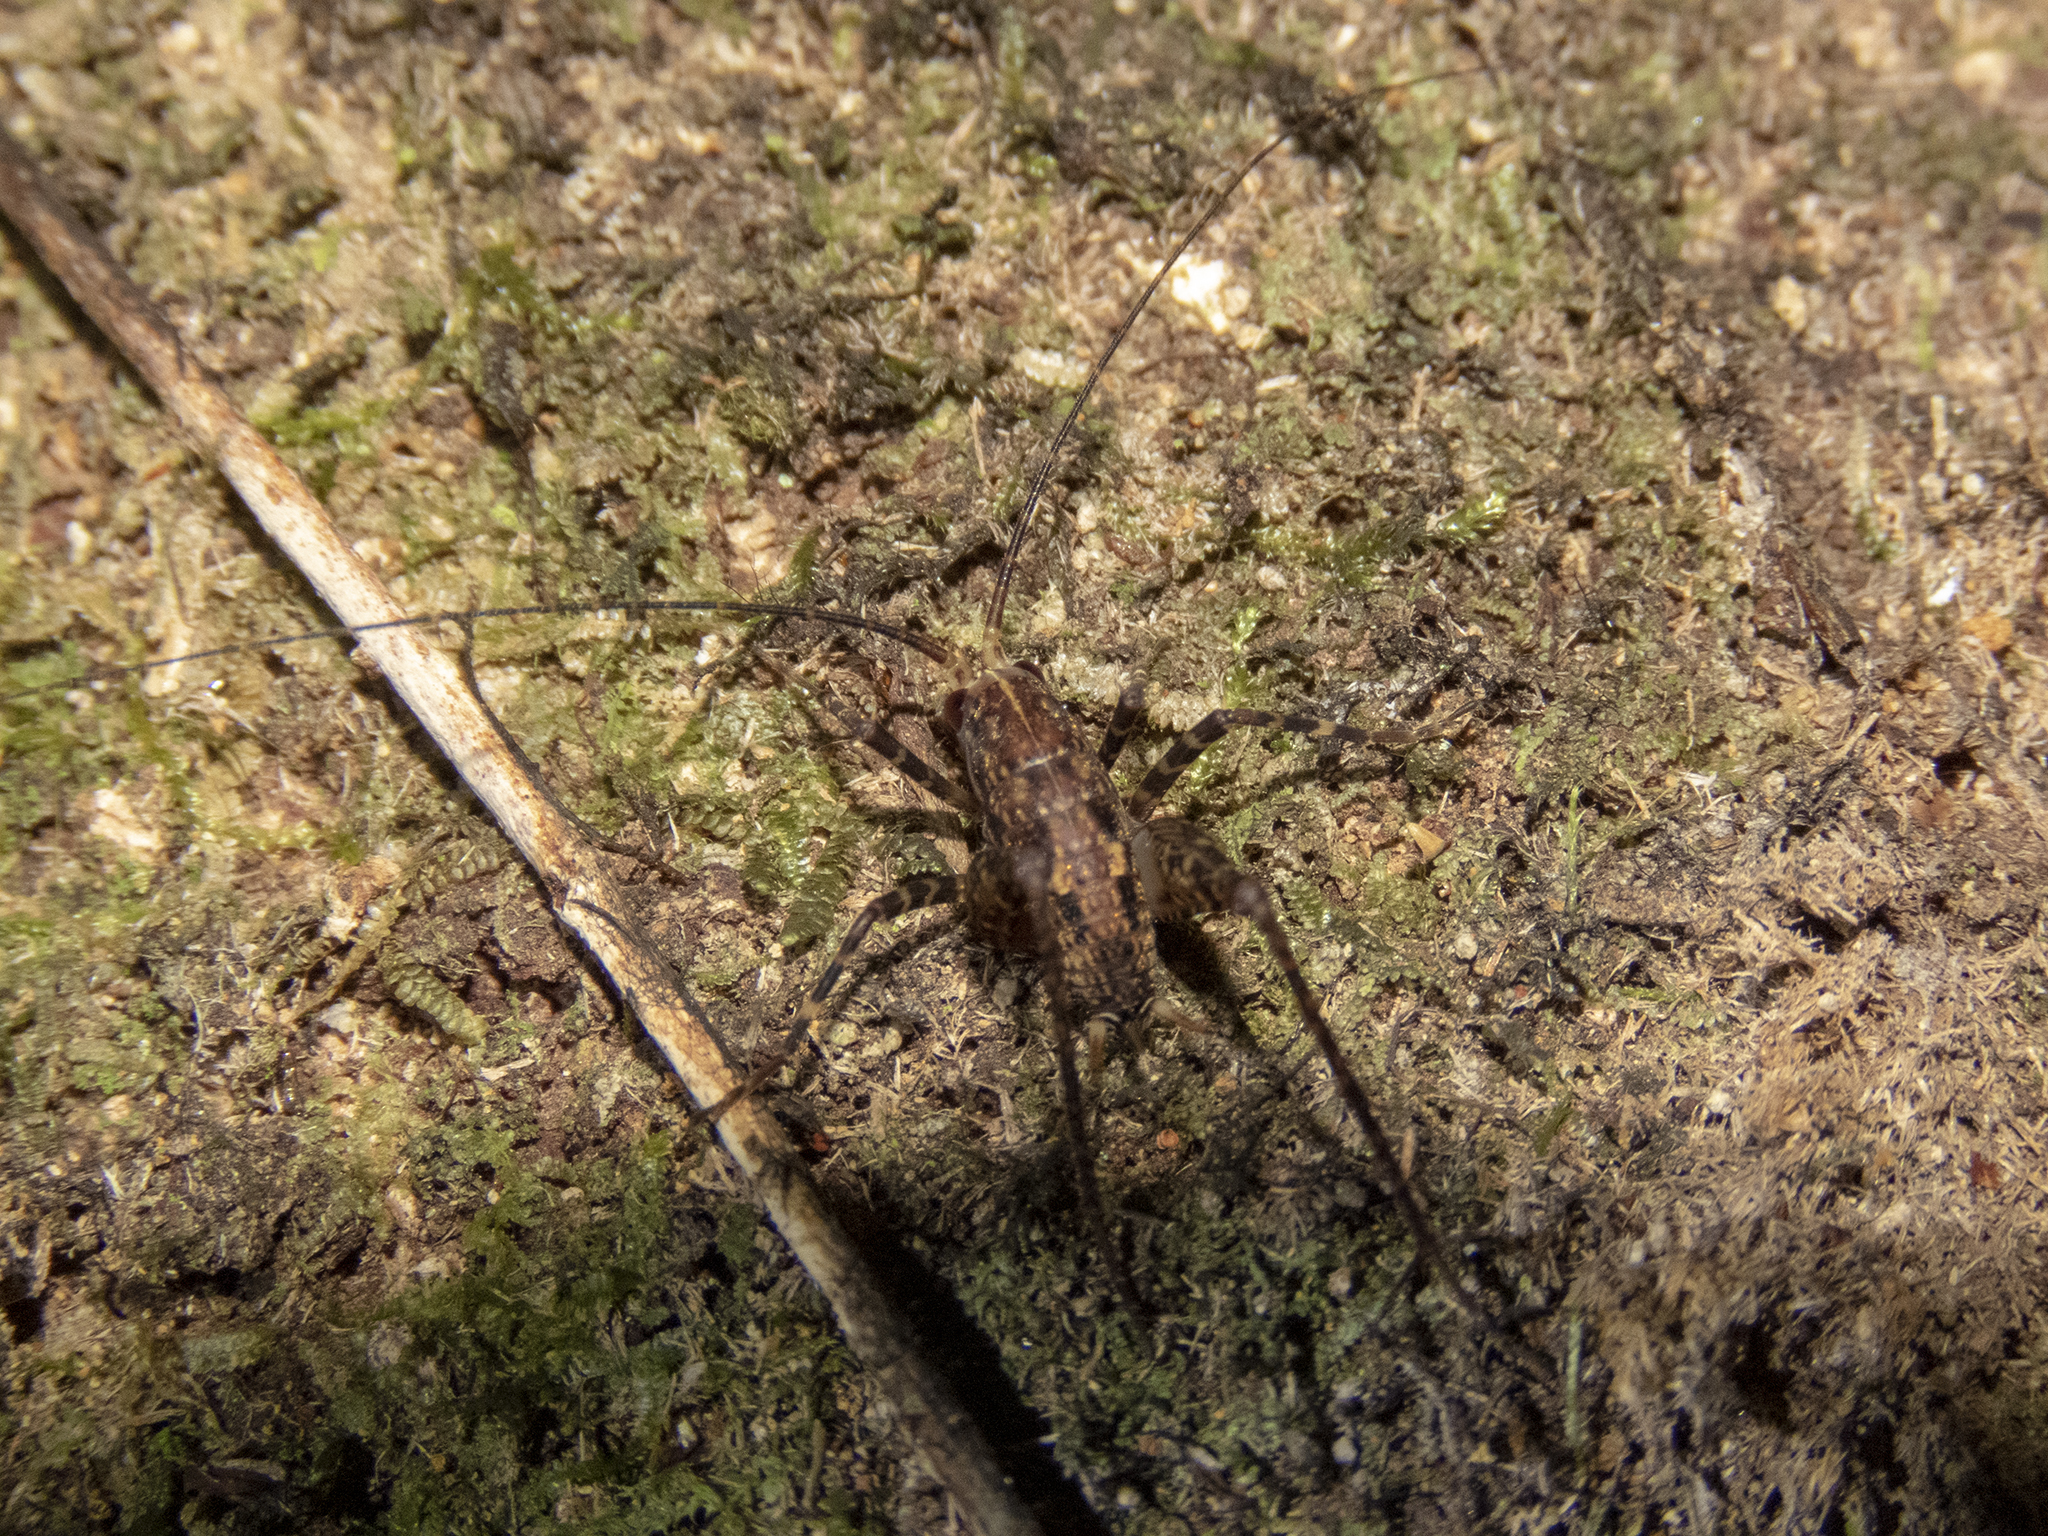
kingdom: Animalia
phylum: Arthropoda
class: Insecta
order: Orthoptera
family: Rhaphidophoridae
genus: Pleioplectron
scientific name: Pleioplectron gubernator
